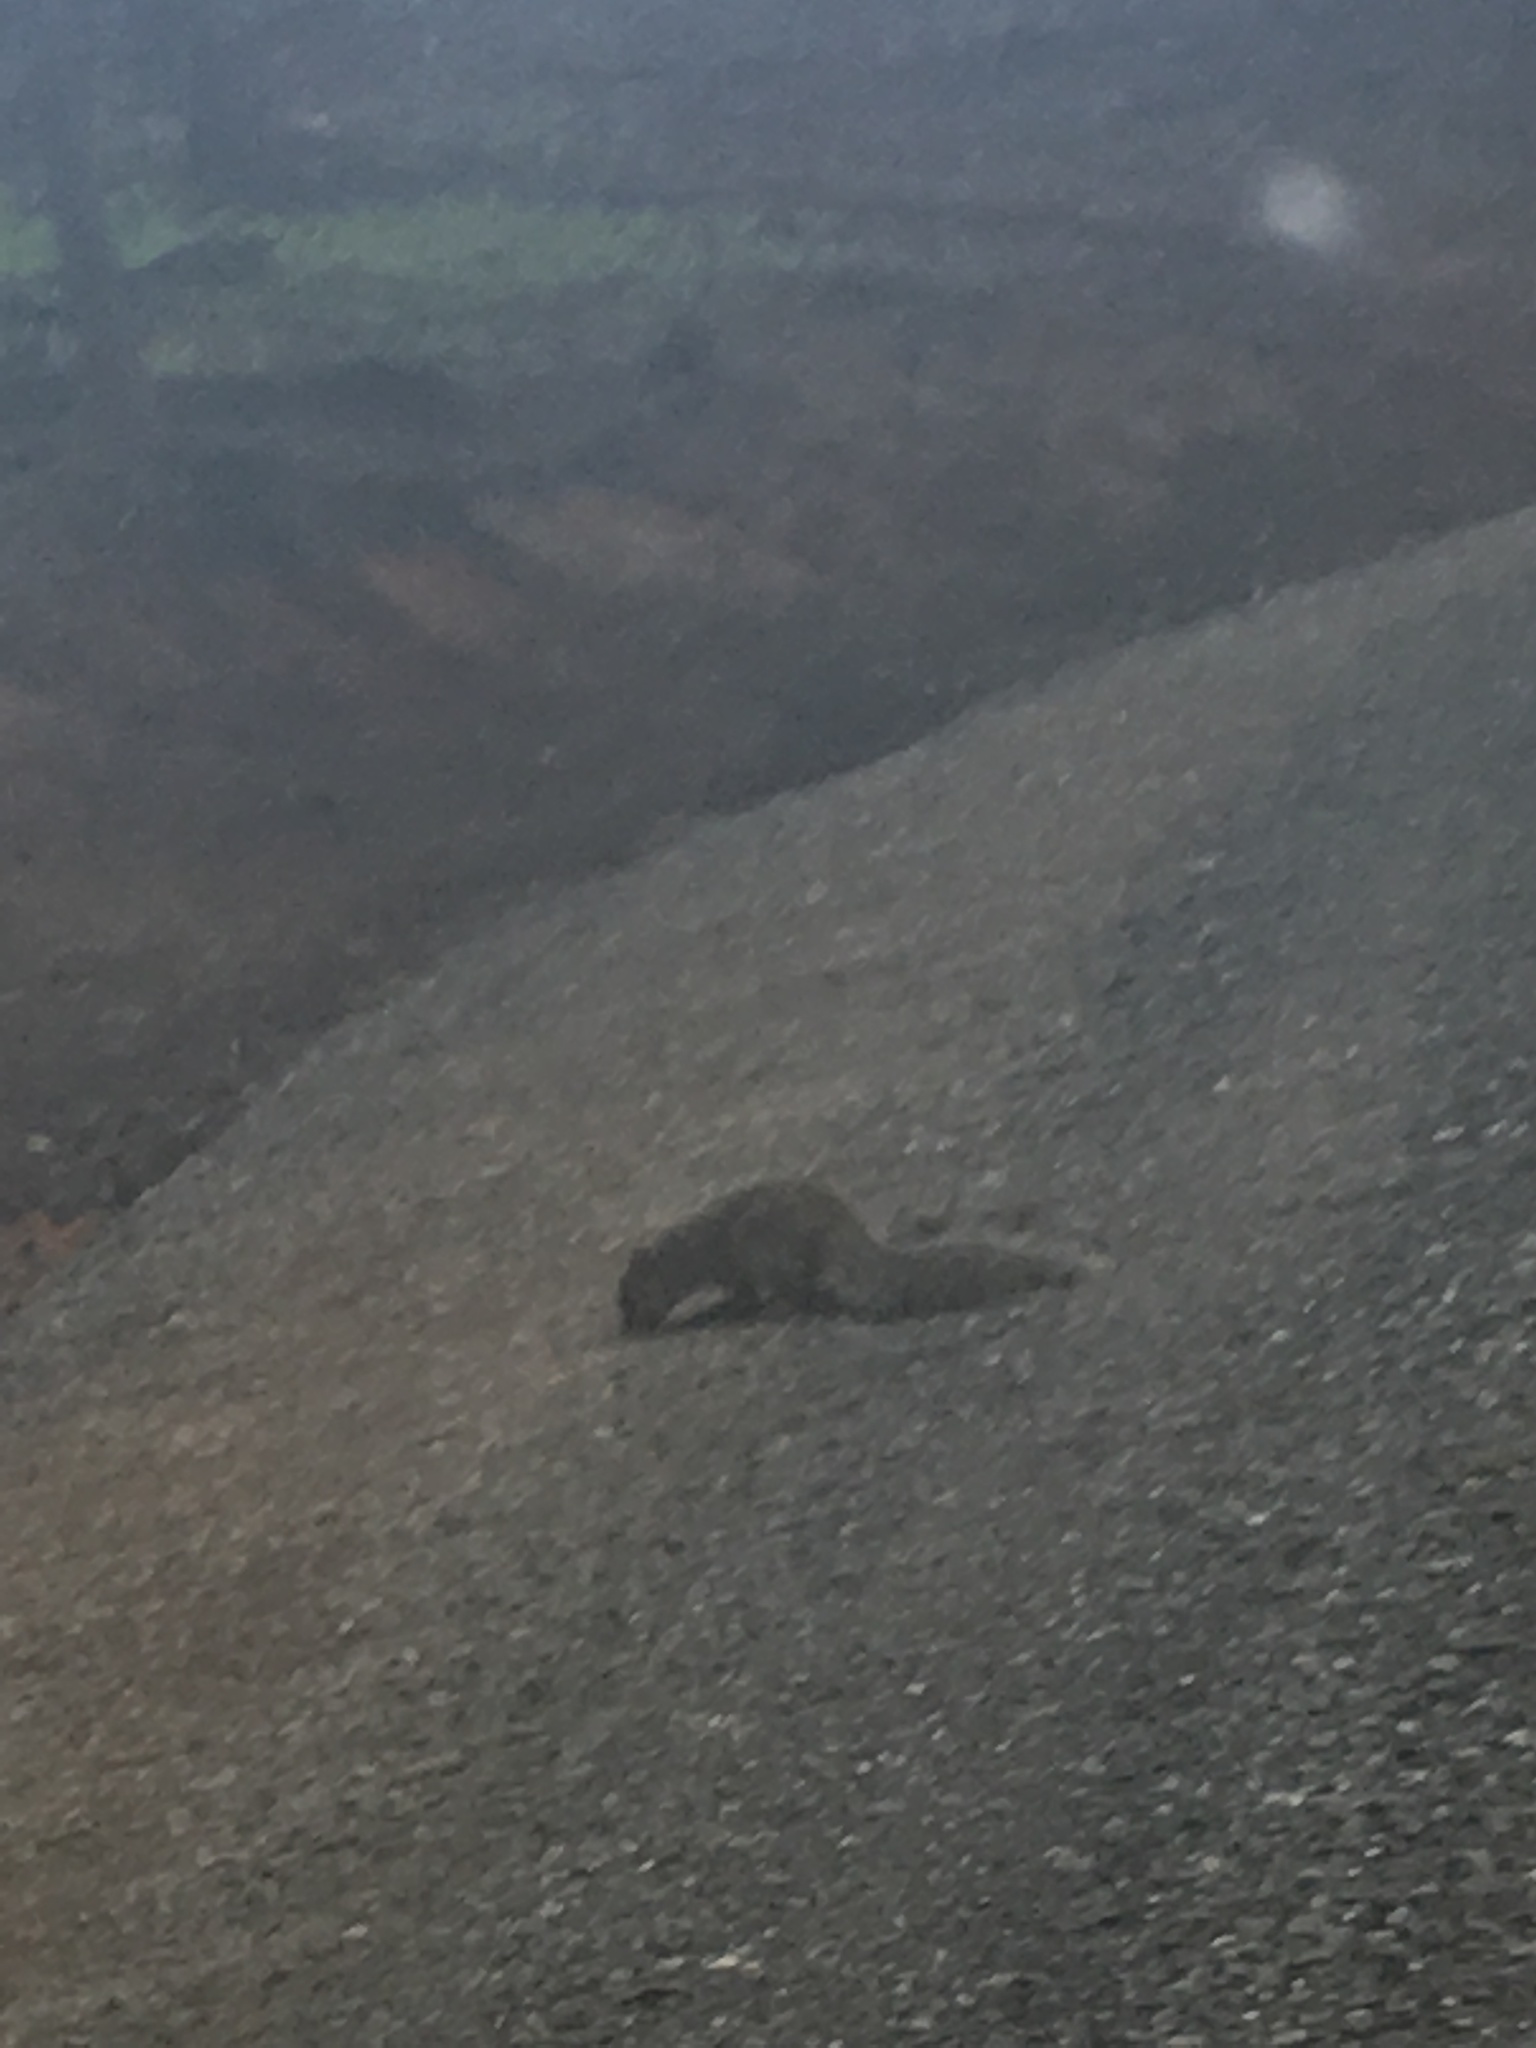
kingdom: Animalia
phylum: Chordata
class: Mammalia
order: Rodentia
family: Sciuridae
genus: Sciurus
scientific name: Sciurus carolinensis
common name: Eastern gray squirrel
